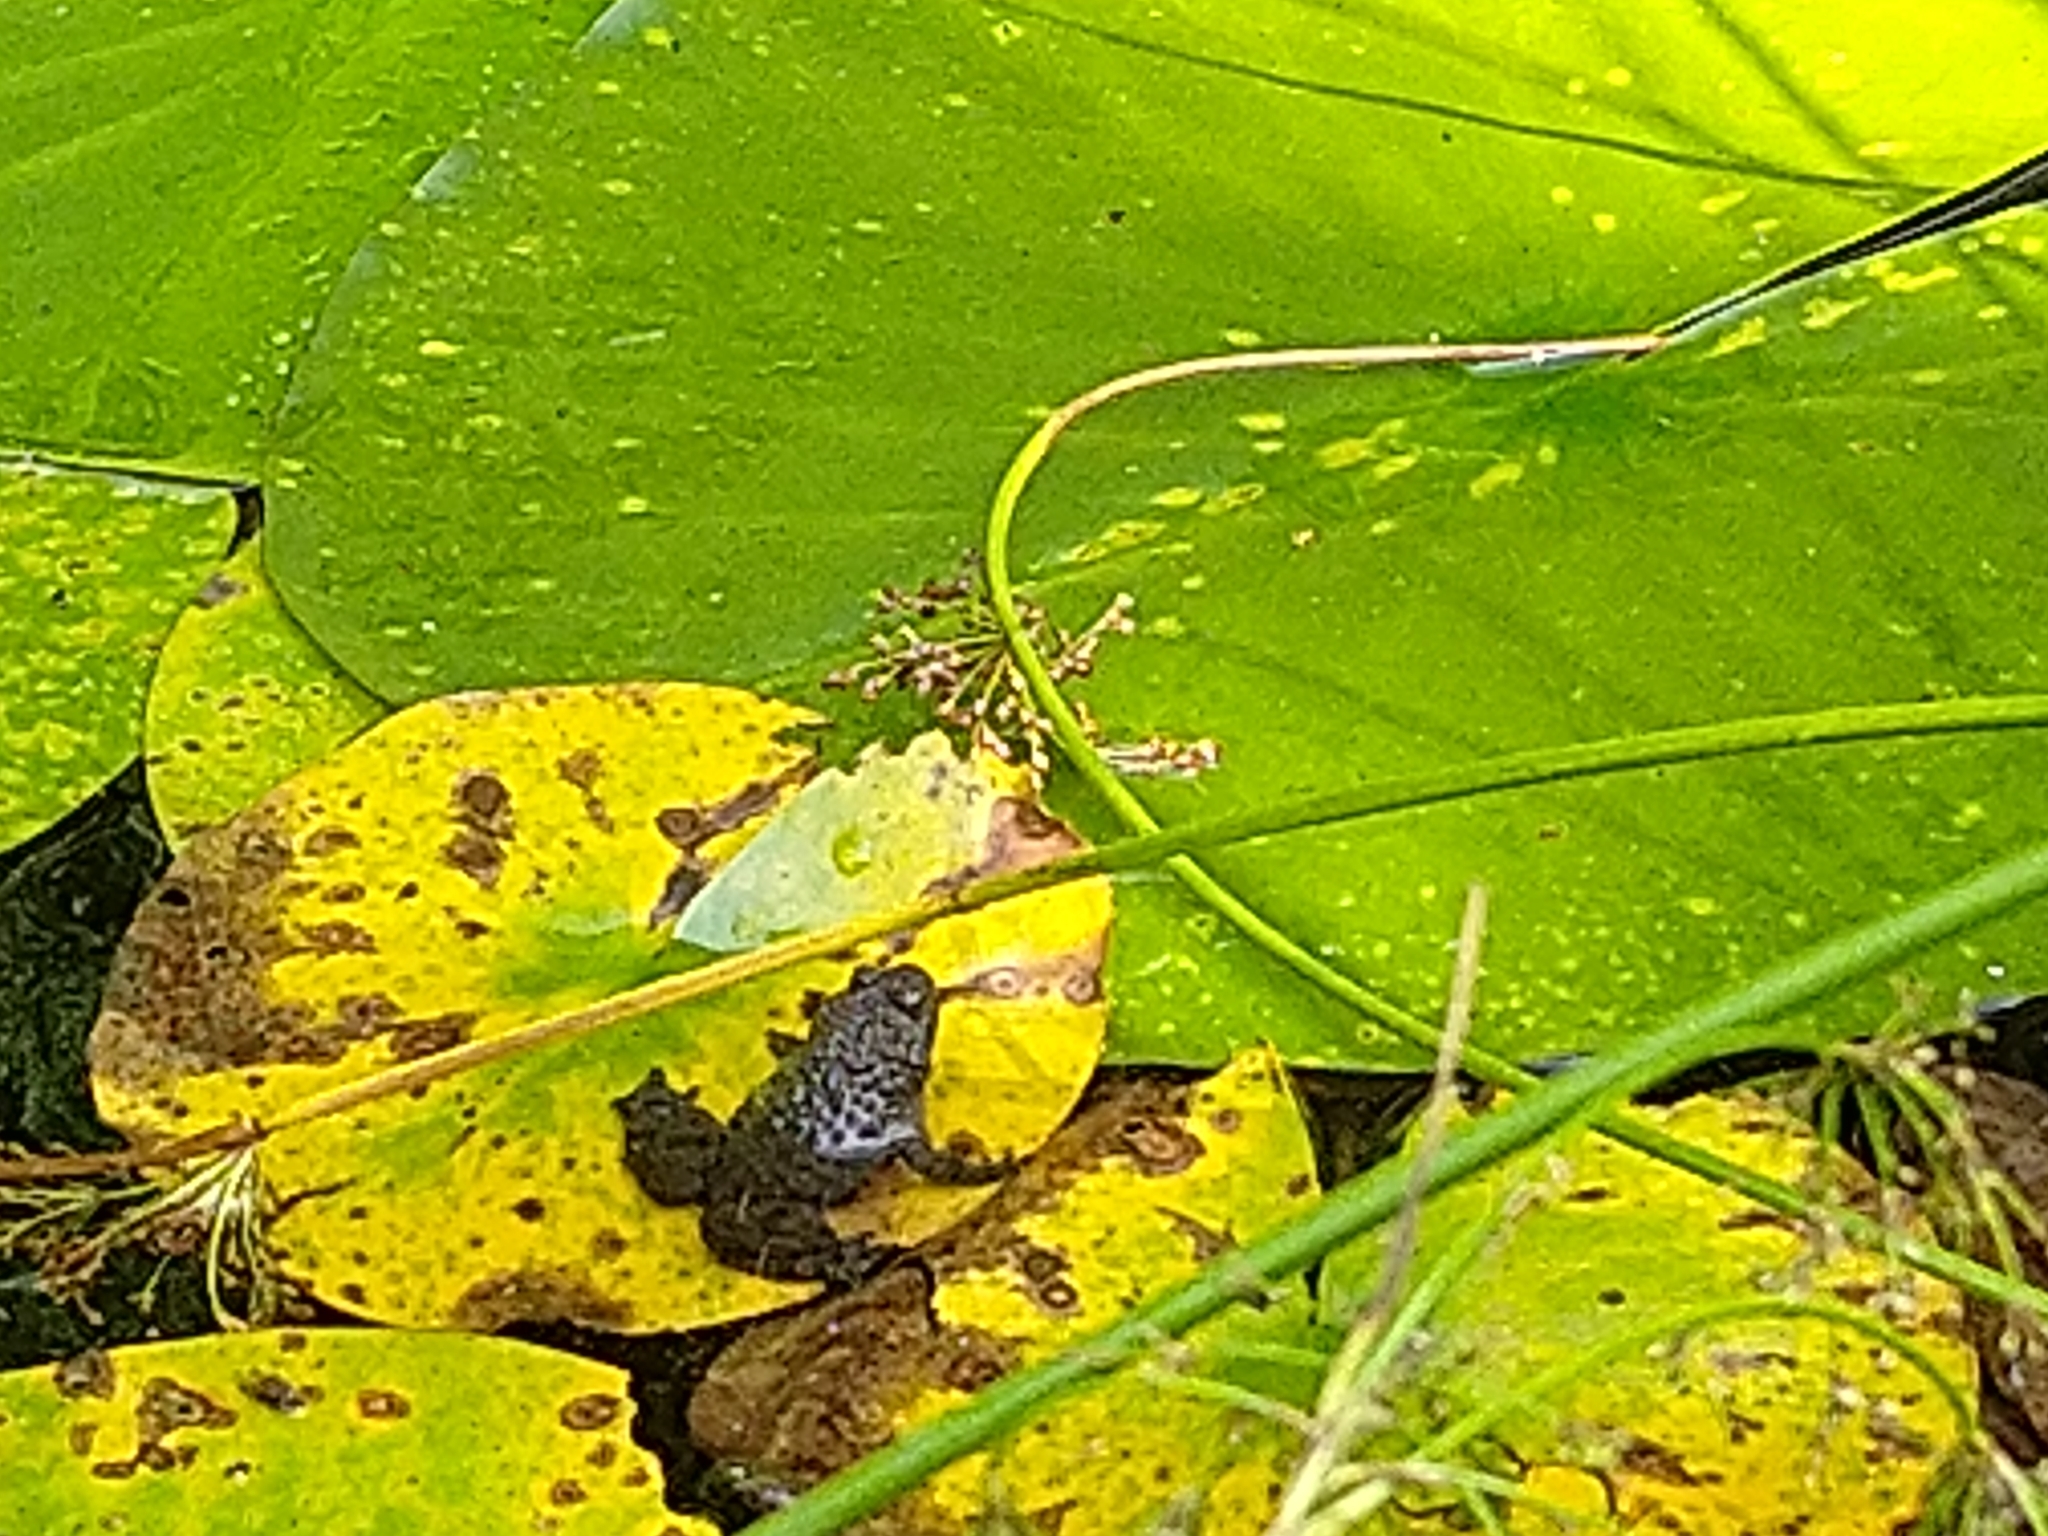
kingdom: Animalia
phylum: Chordata
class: Amphibia
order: Anura
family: Bombinatoridae
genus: Bombina
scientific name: Bombina variegata
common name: Yellow-bellied toad
